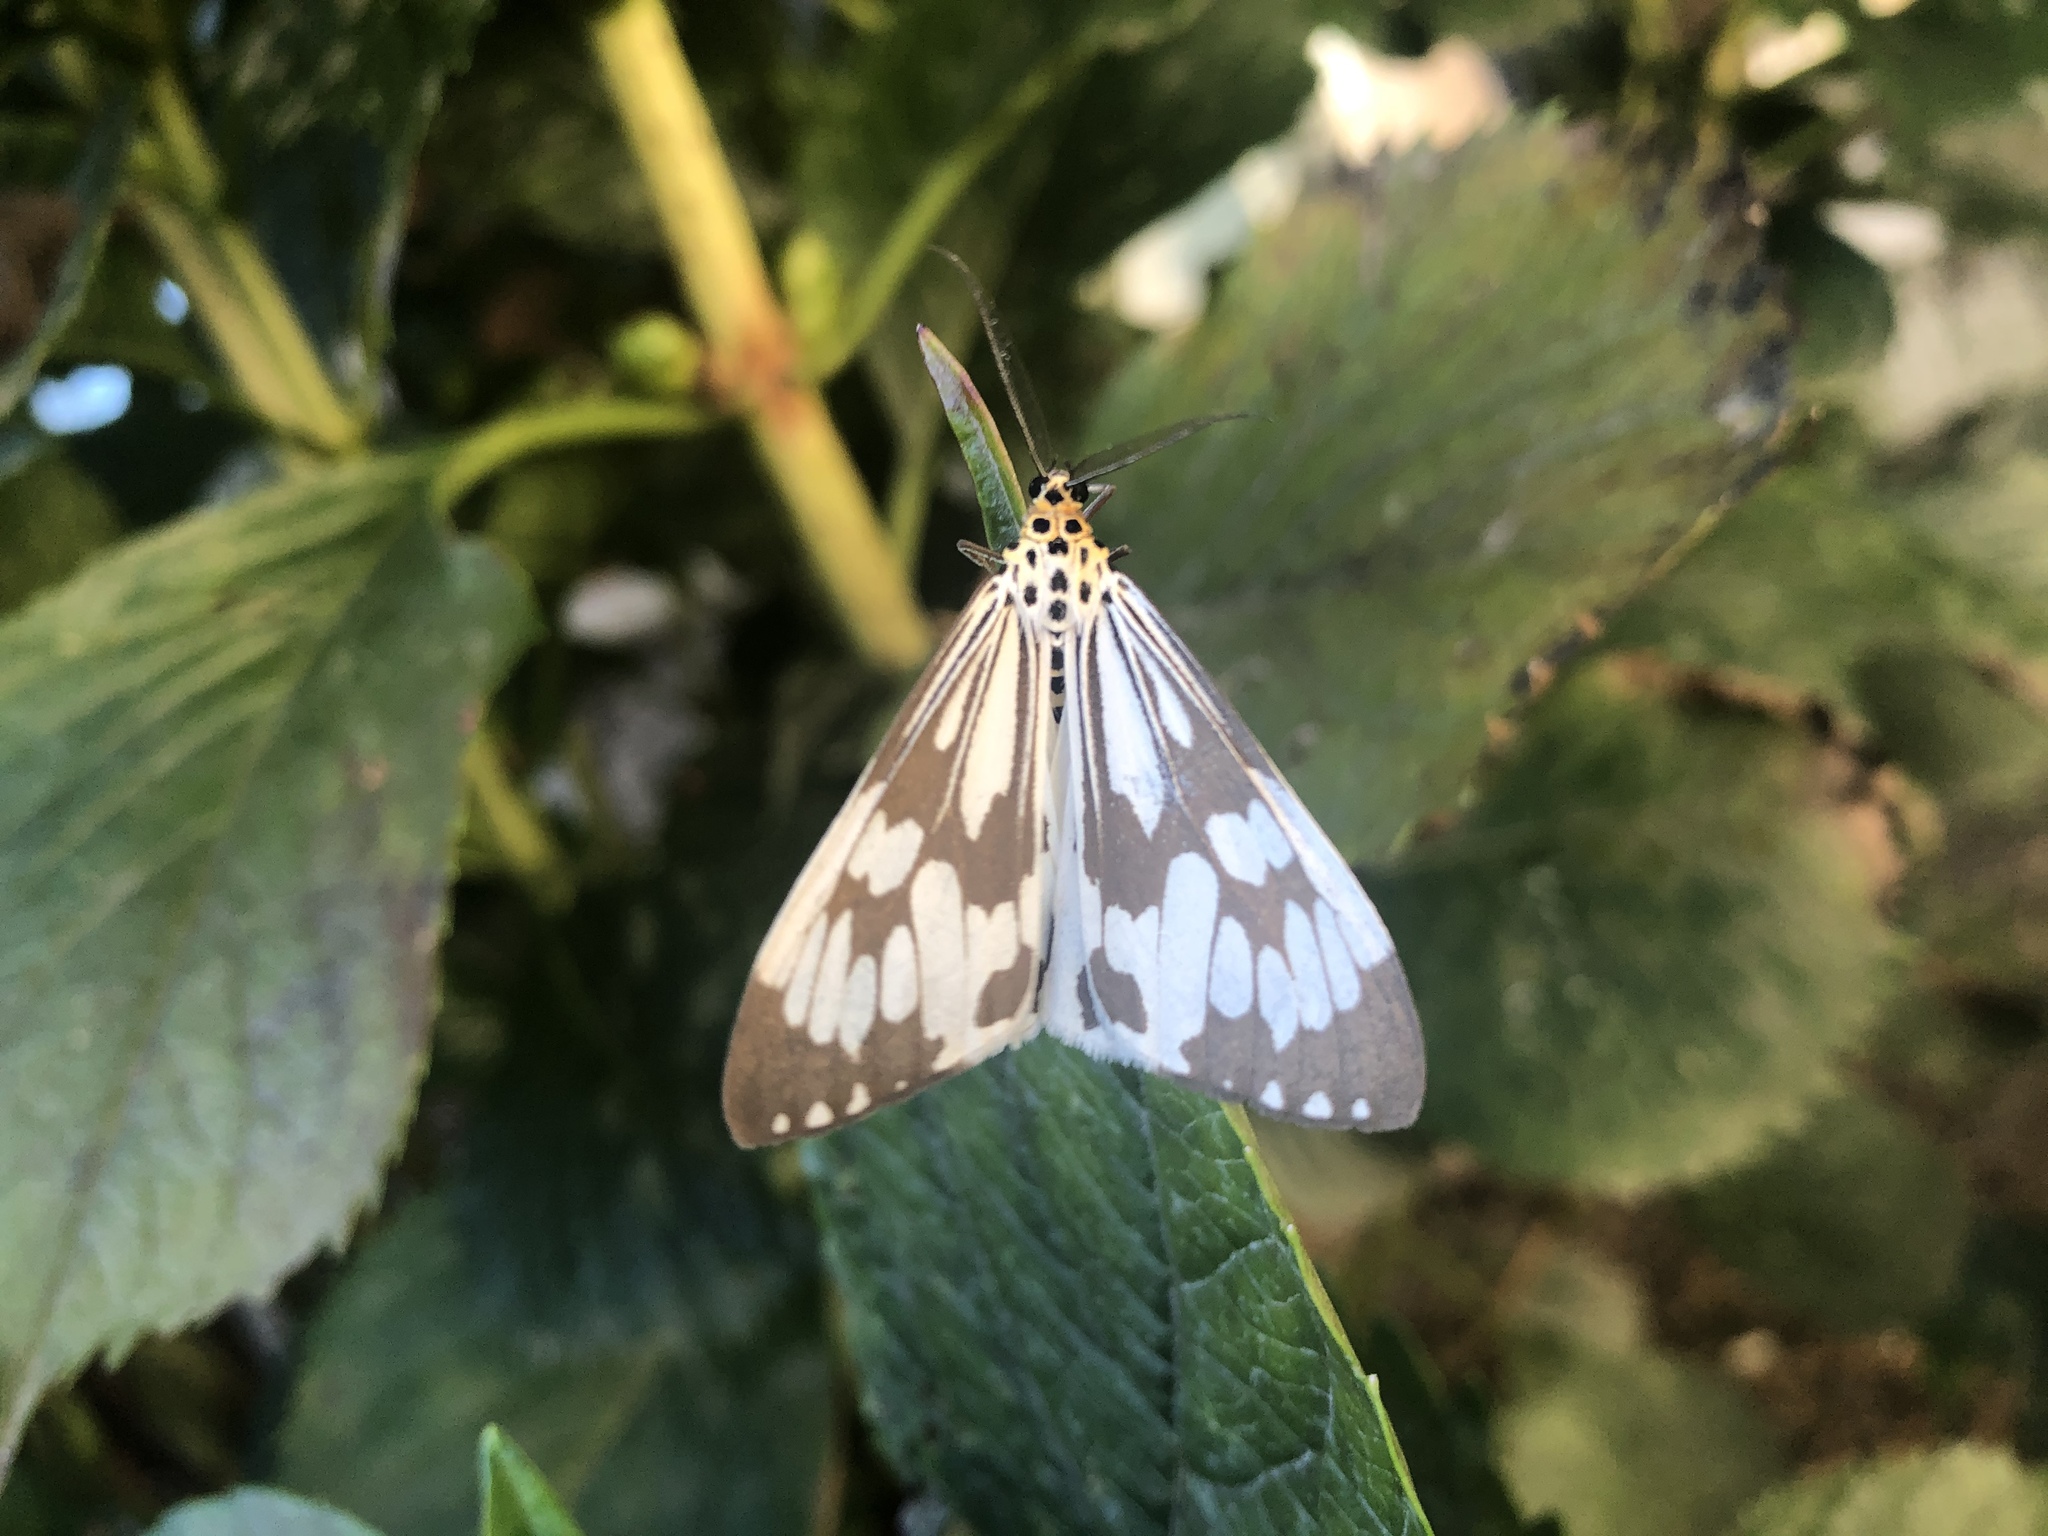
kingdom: Animalia
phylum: Arthropoda
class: Insecta
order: Lepidoptera
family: Erebidae
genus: Nyctemera
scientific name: Nyctemera adversata
